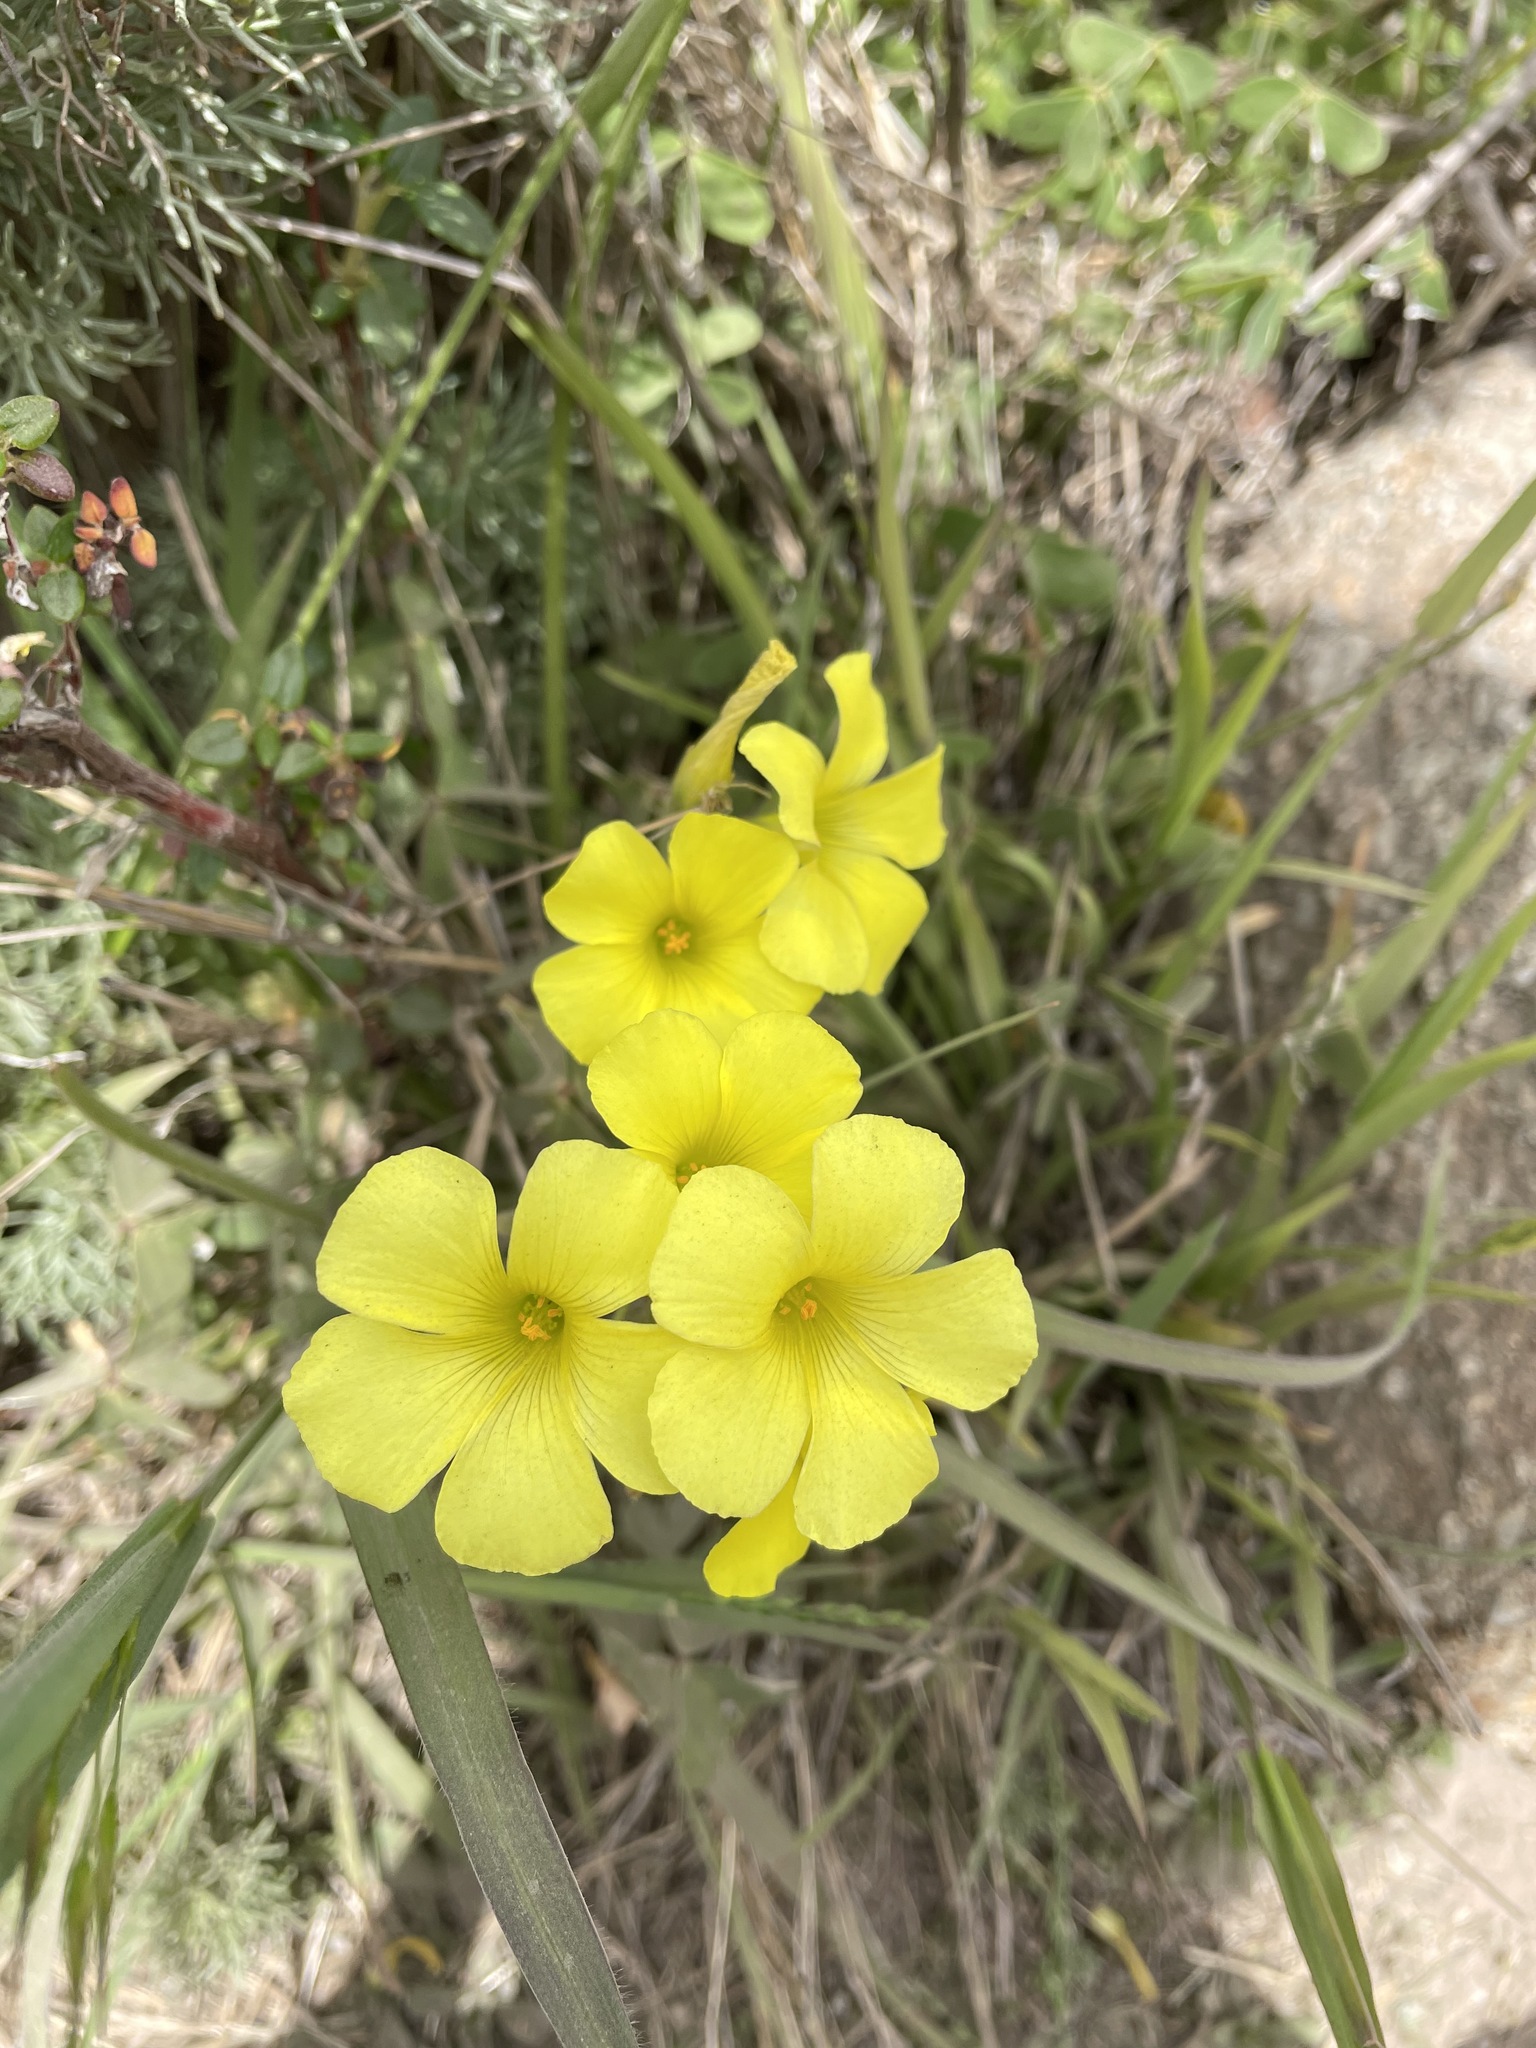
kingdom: Plantae
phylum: Tracheophyta
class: Magnoliopsida
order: Oxalidales
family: Oxalidaceae
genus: Oxalis
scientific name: Oxalis pes-caprae
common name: Bermuda-buttercup
